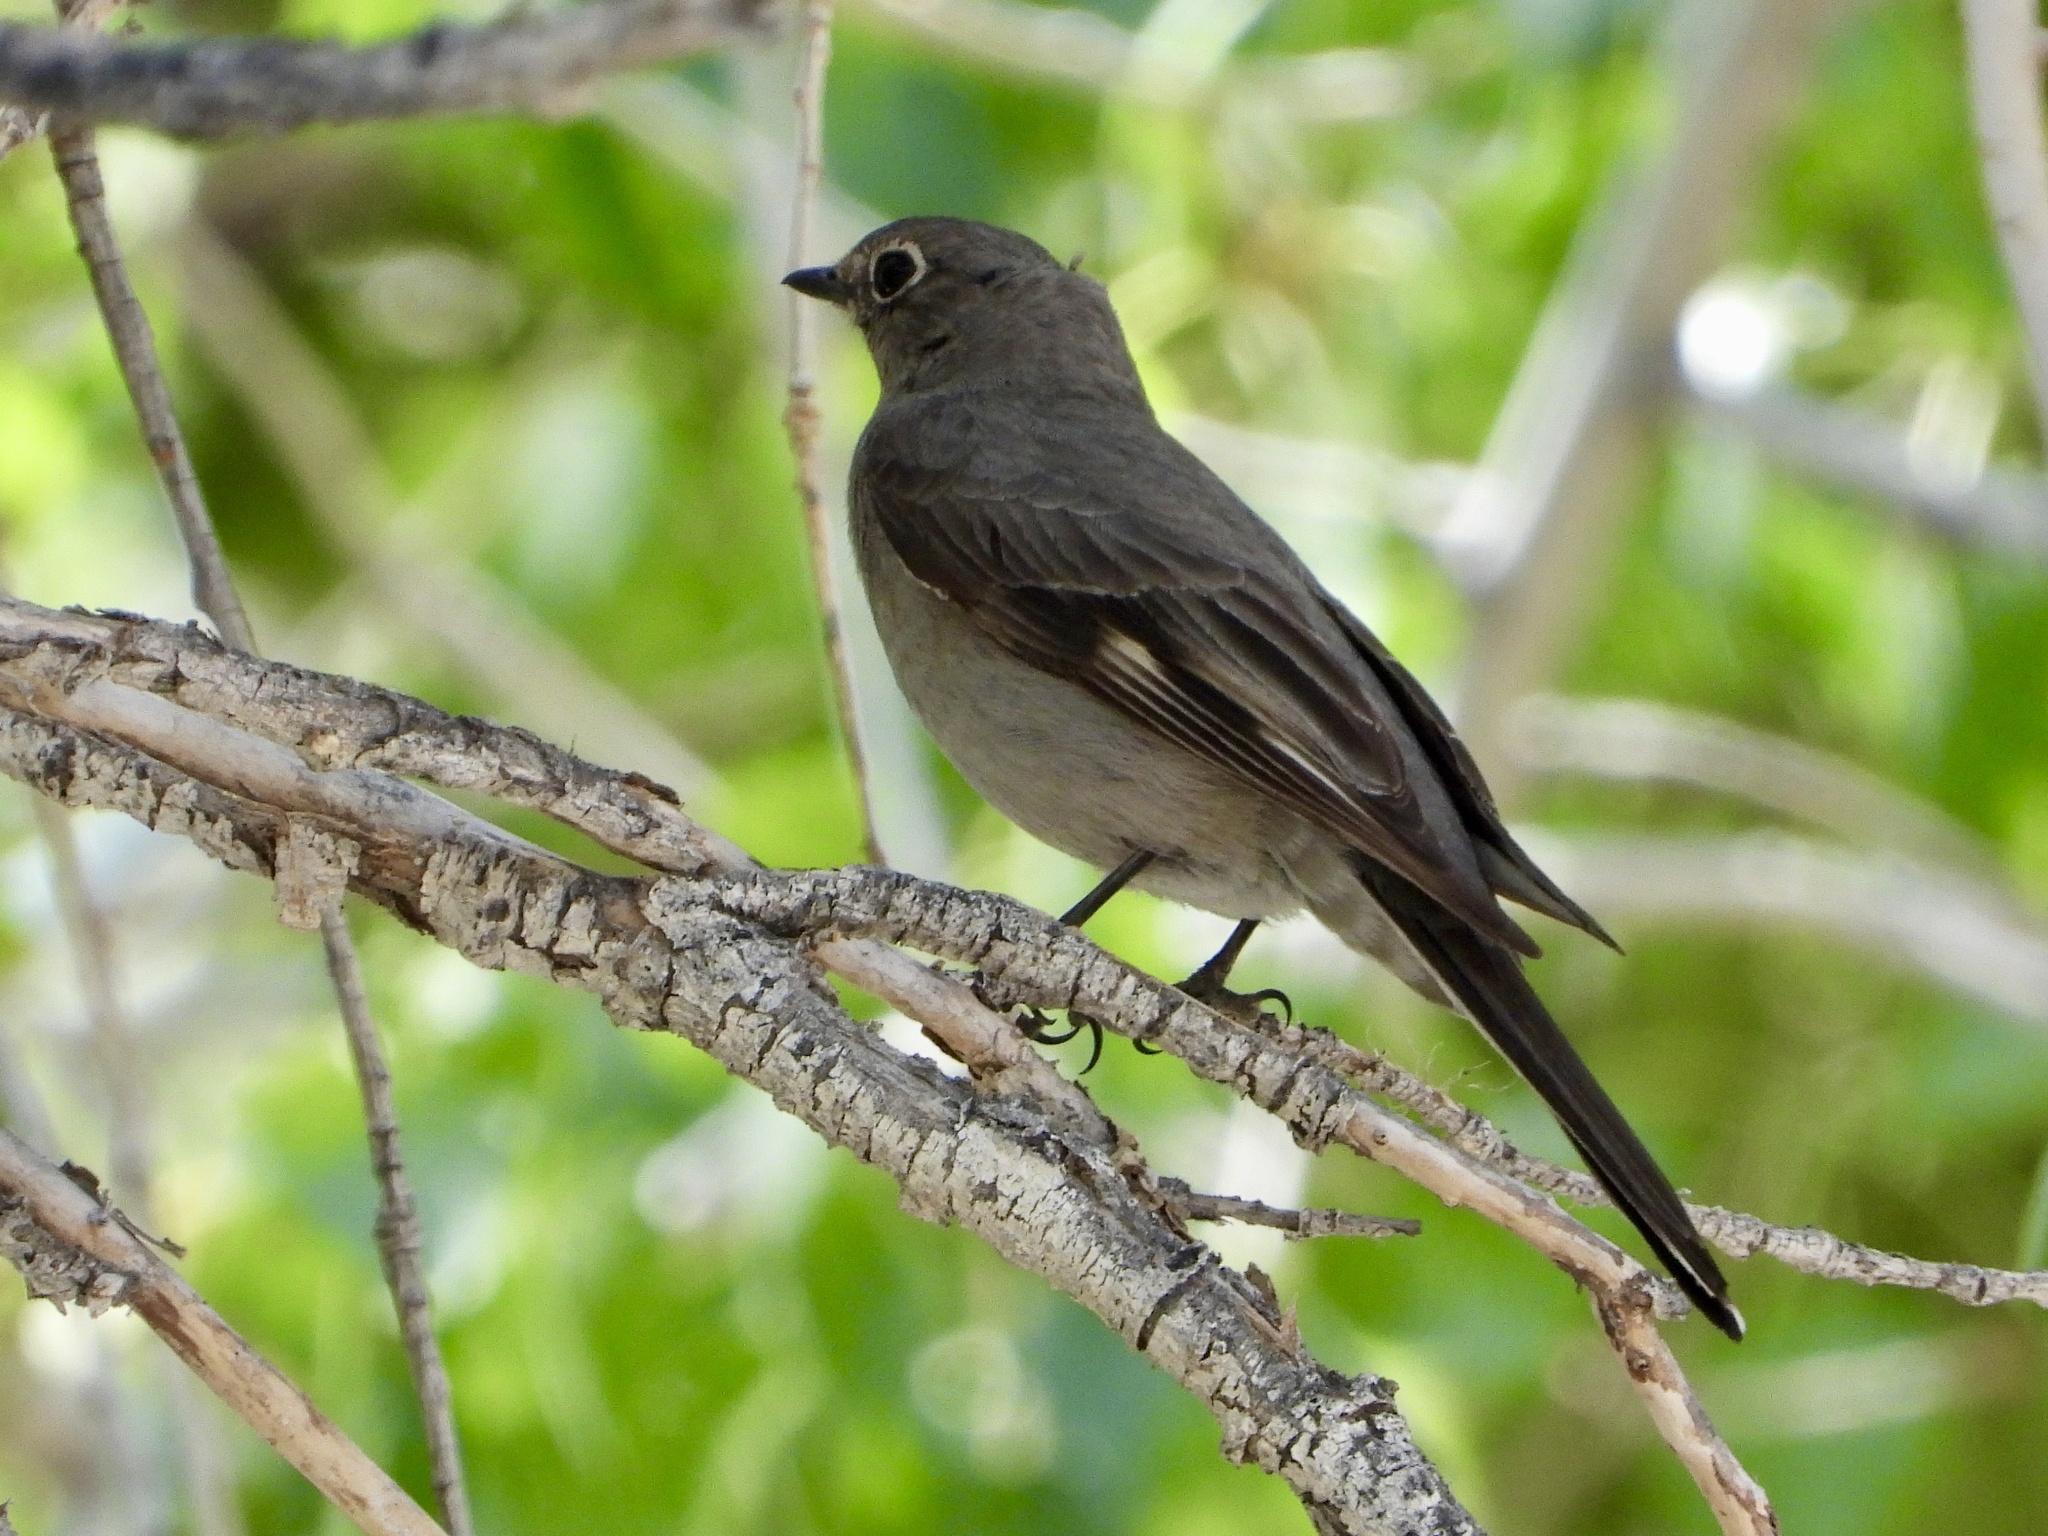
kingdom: Animalia
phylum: Chordata
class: Aves
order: Passeriformes
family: Turdidae
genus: Myadestes
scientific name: Myadestes townsendi
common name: Townsend's solitaire
